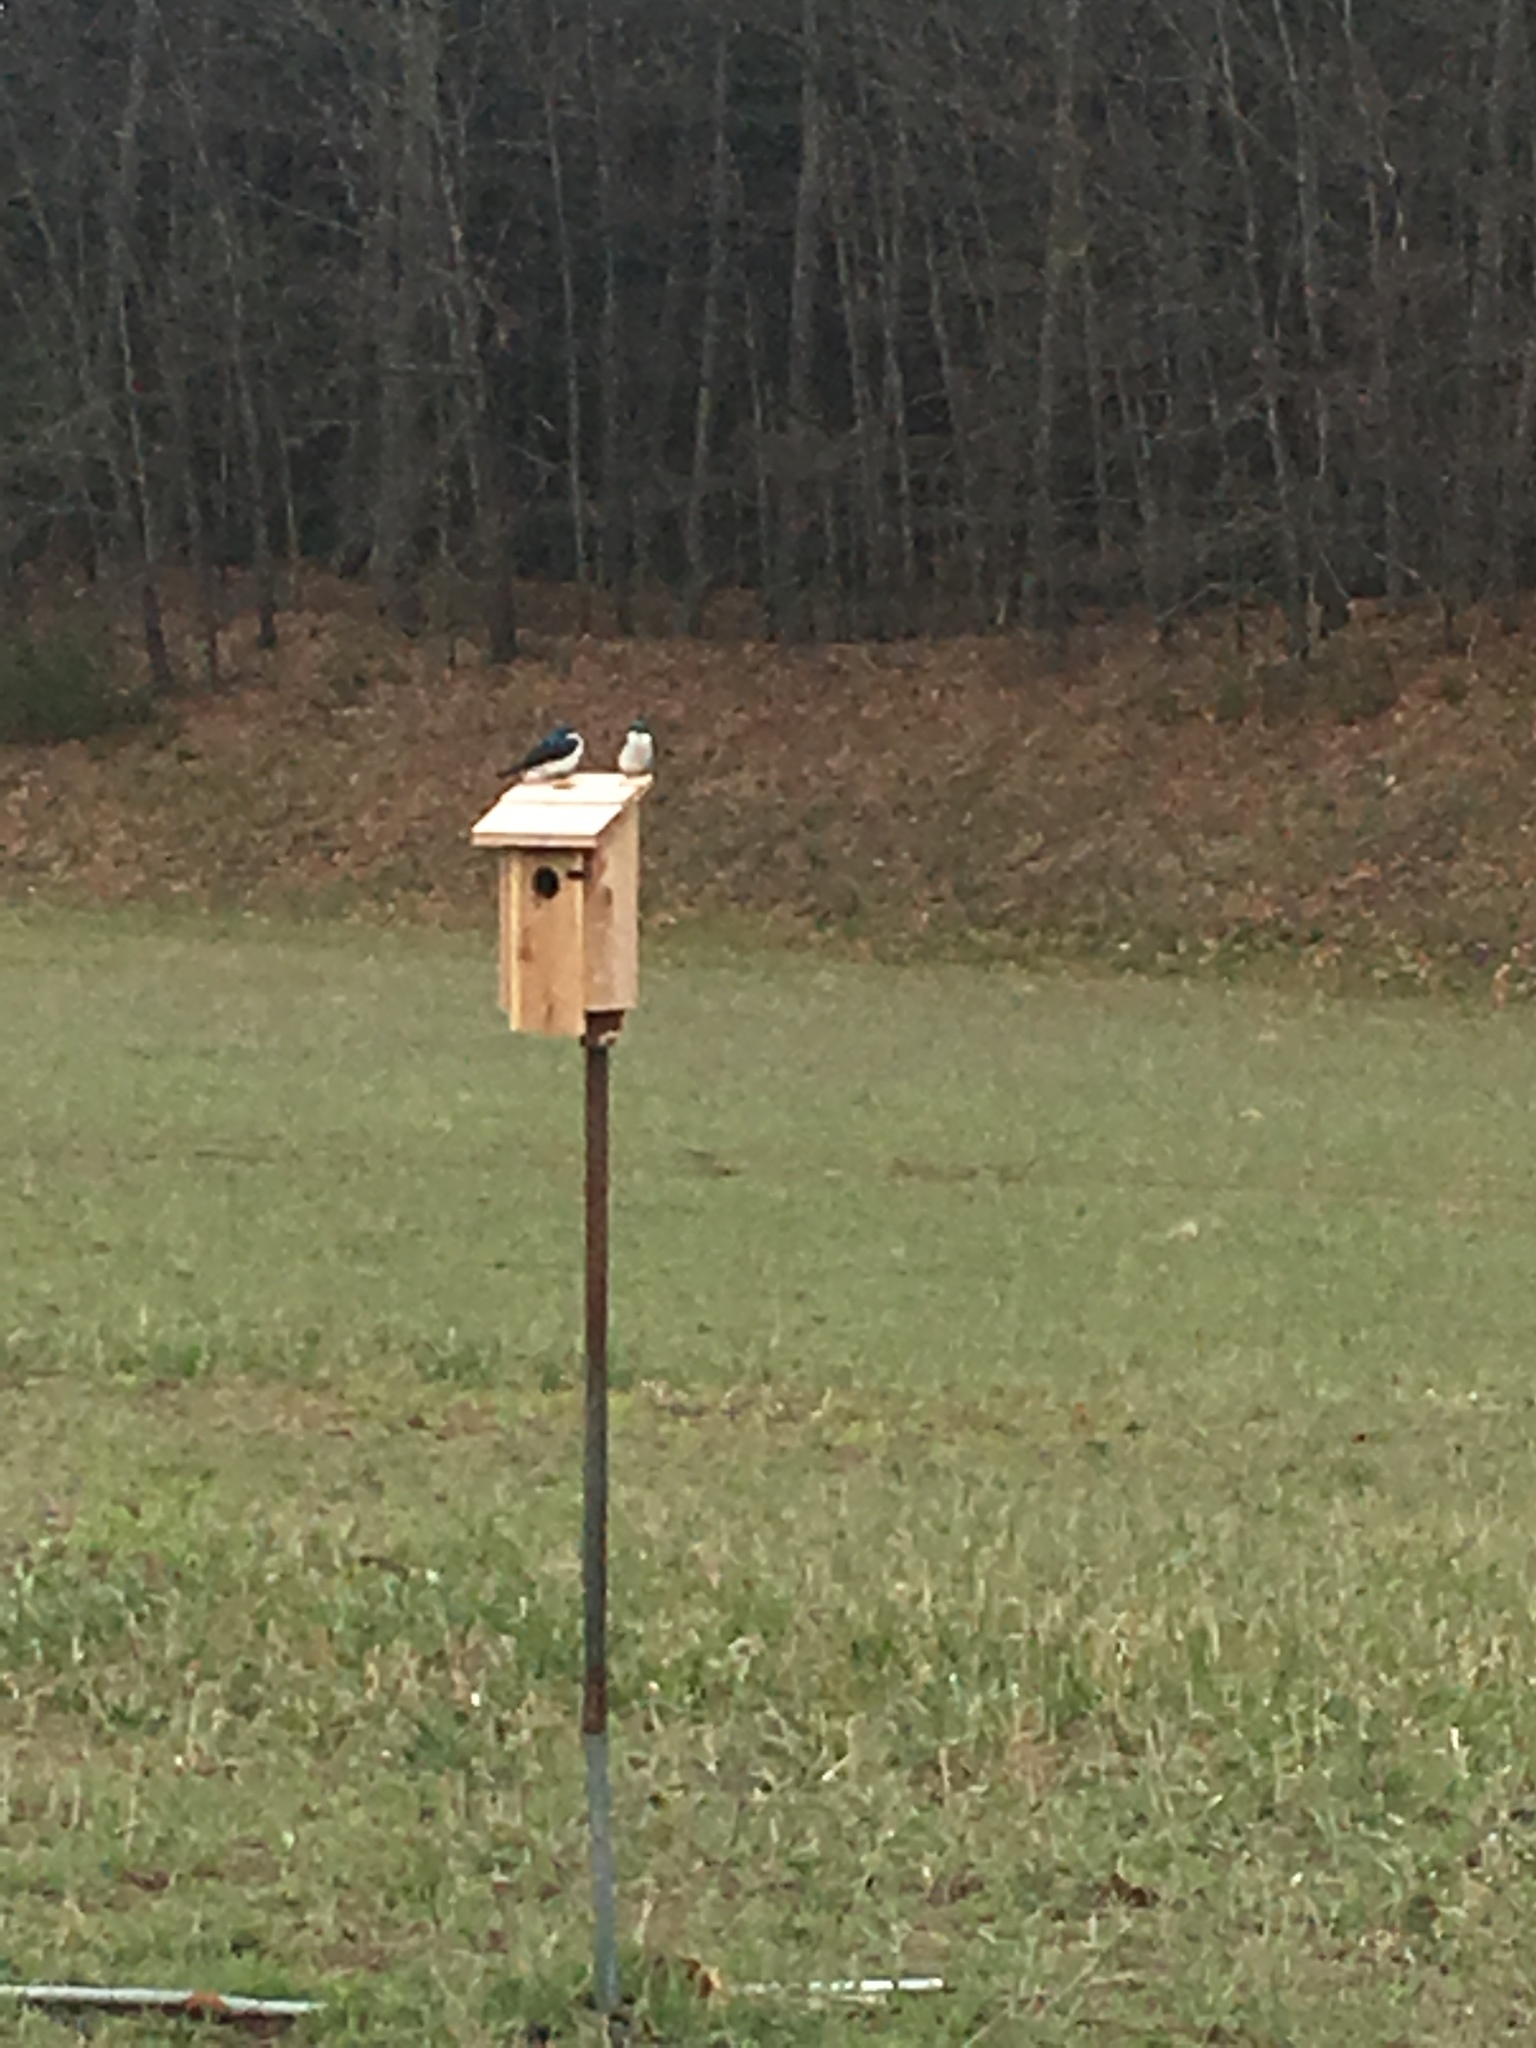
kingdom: Animalia
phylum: Chordata
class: Aves
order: Passeriformes
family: Hirundinidae
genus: Tachycineta
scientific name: Tachycineta bicolor
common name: Tree swallow
